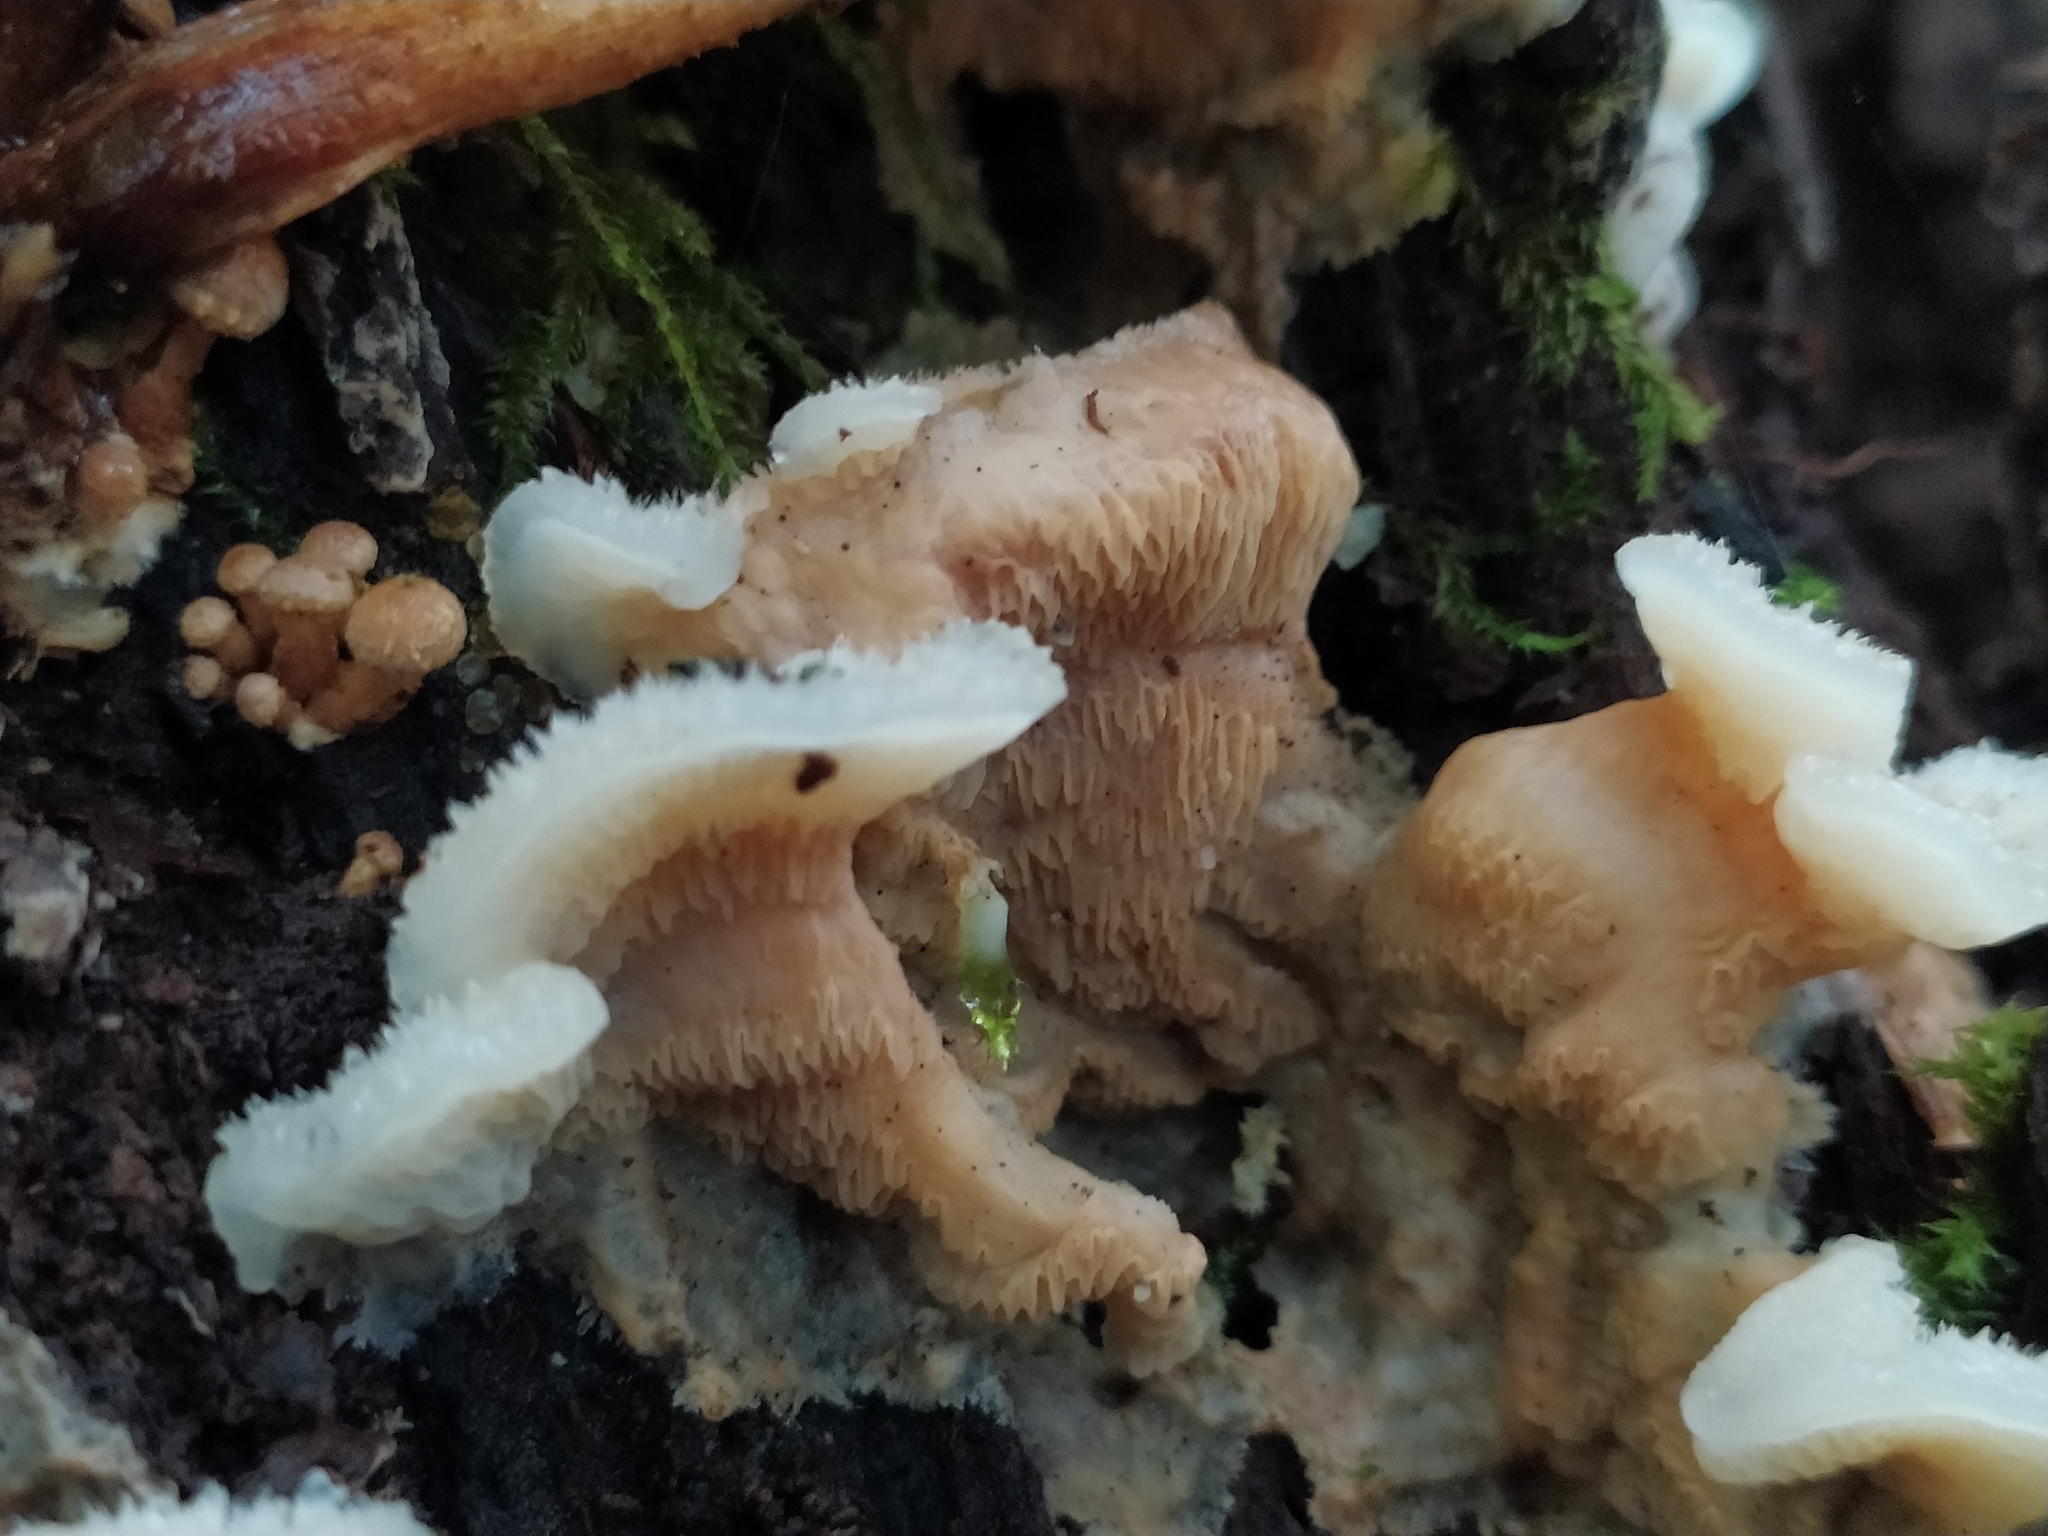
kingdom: Fungi
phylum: Basidiomycota
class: Agaricomycetes
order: Polyporales
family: Meruliaceae
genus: Phlebia
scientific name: Phlebia tremellosa
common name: Jelly rot
